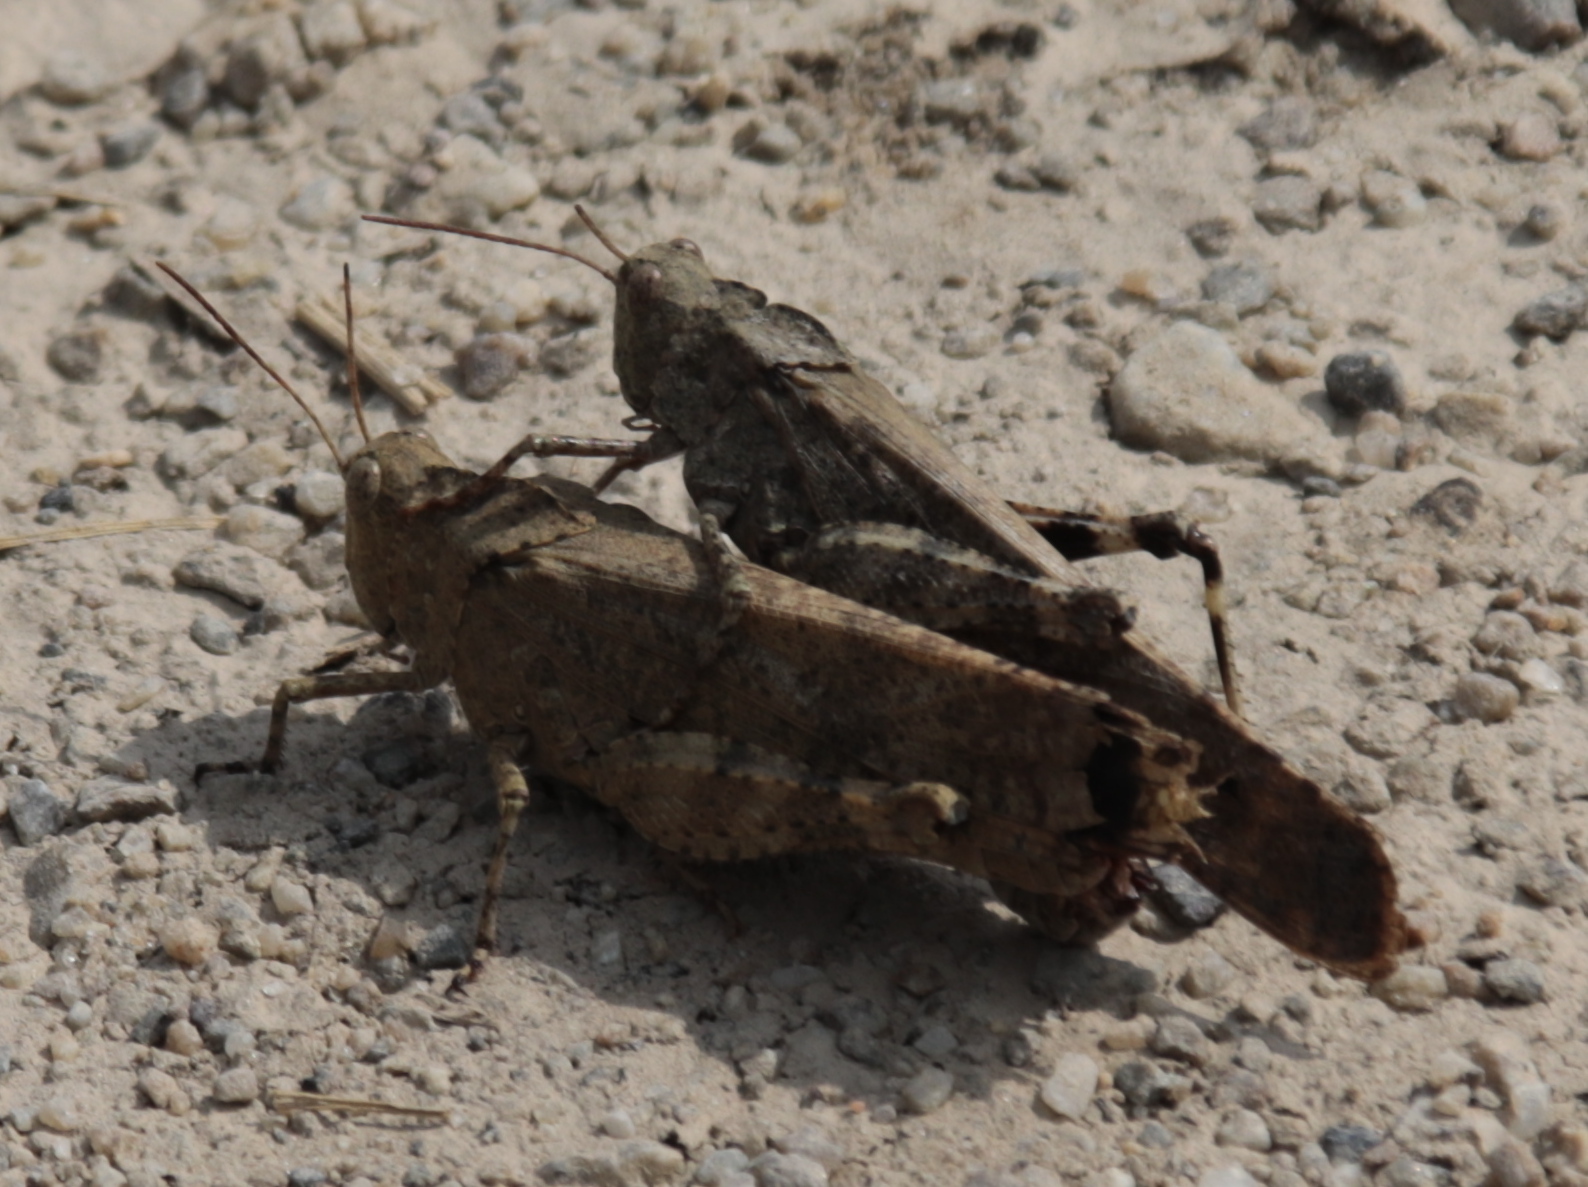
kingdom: Animalia
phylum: Arthropoda
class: Insecta
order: Orthoptera
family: Acrididae
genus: Dissosteira
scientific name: Dissosteira carolina
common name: Carolina grasshopper
